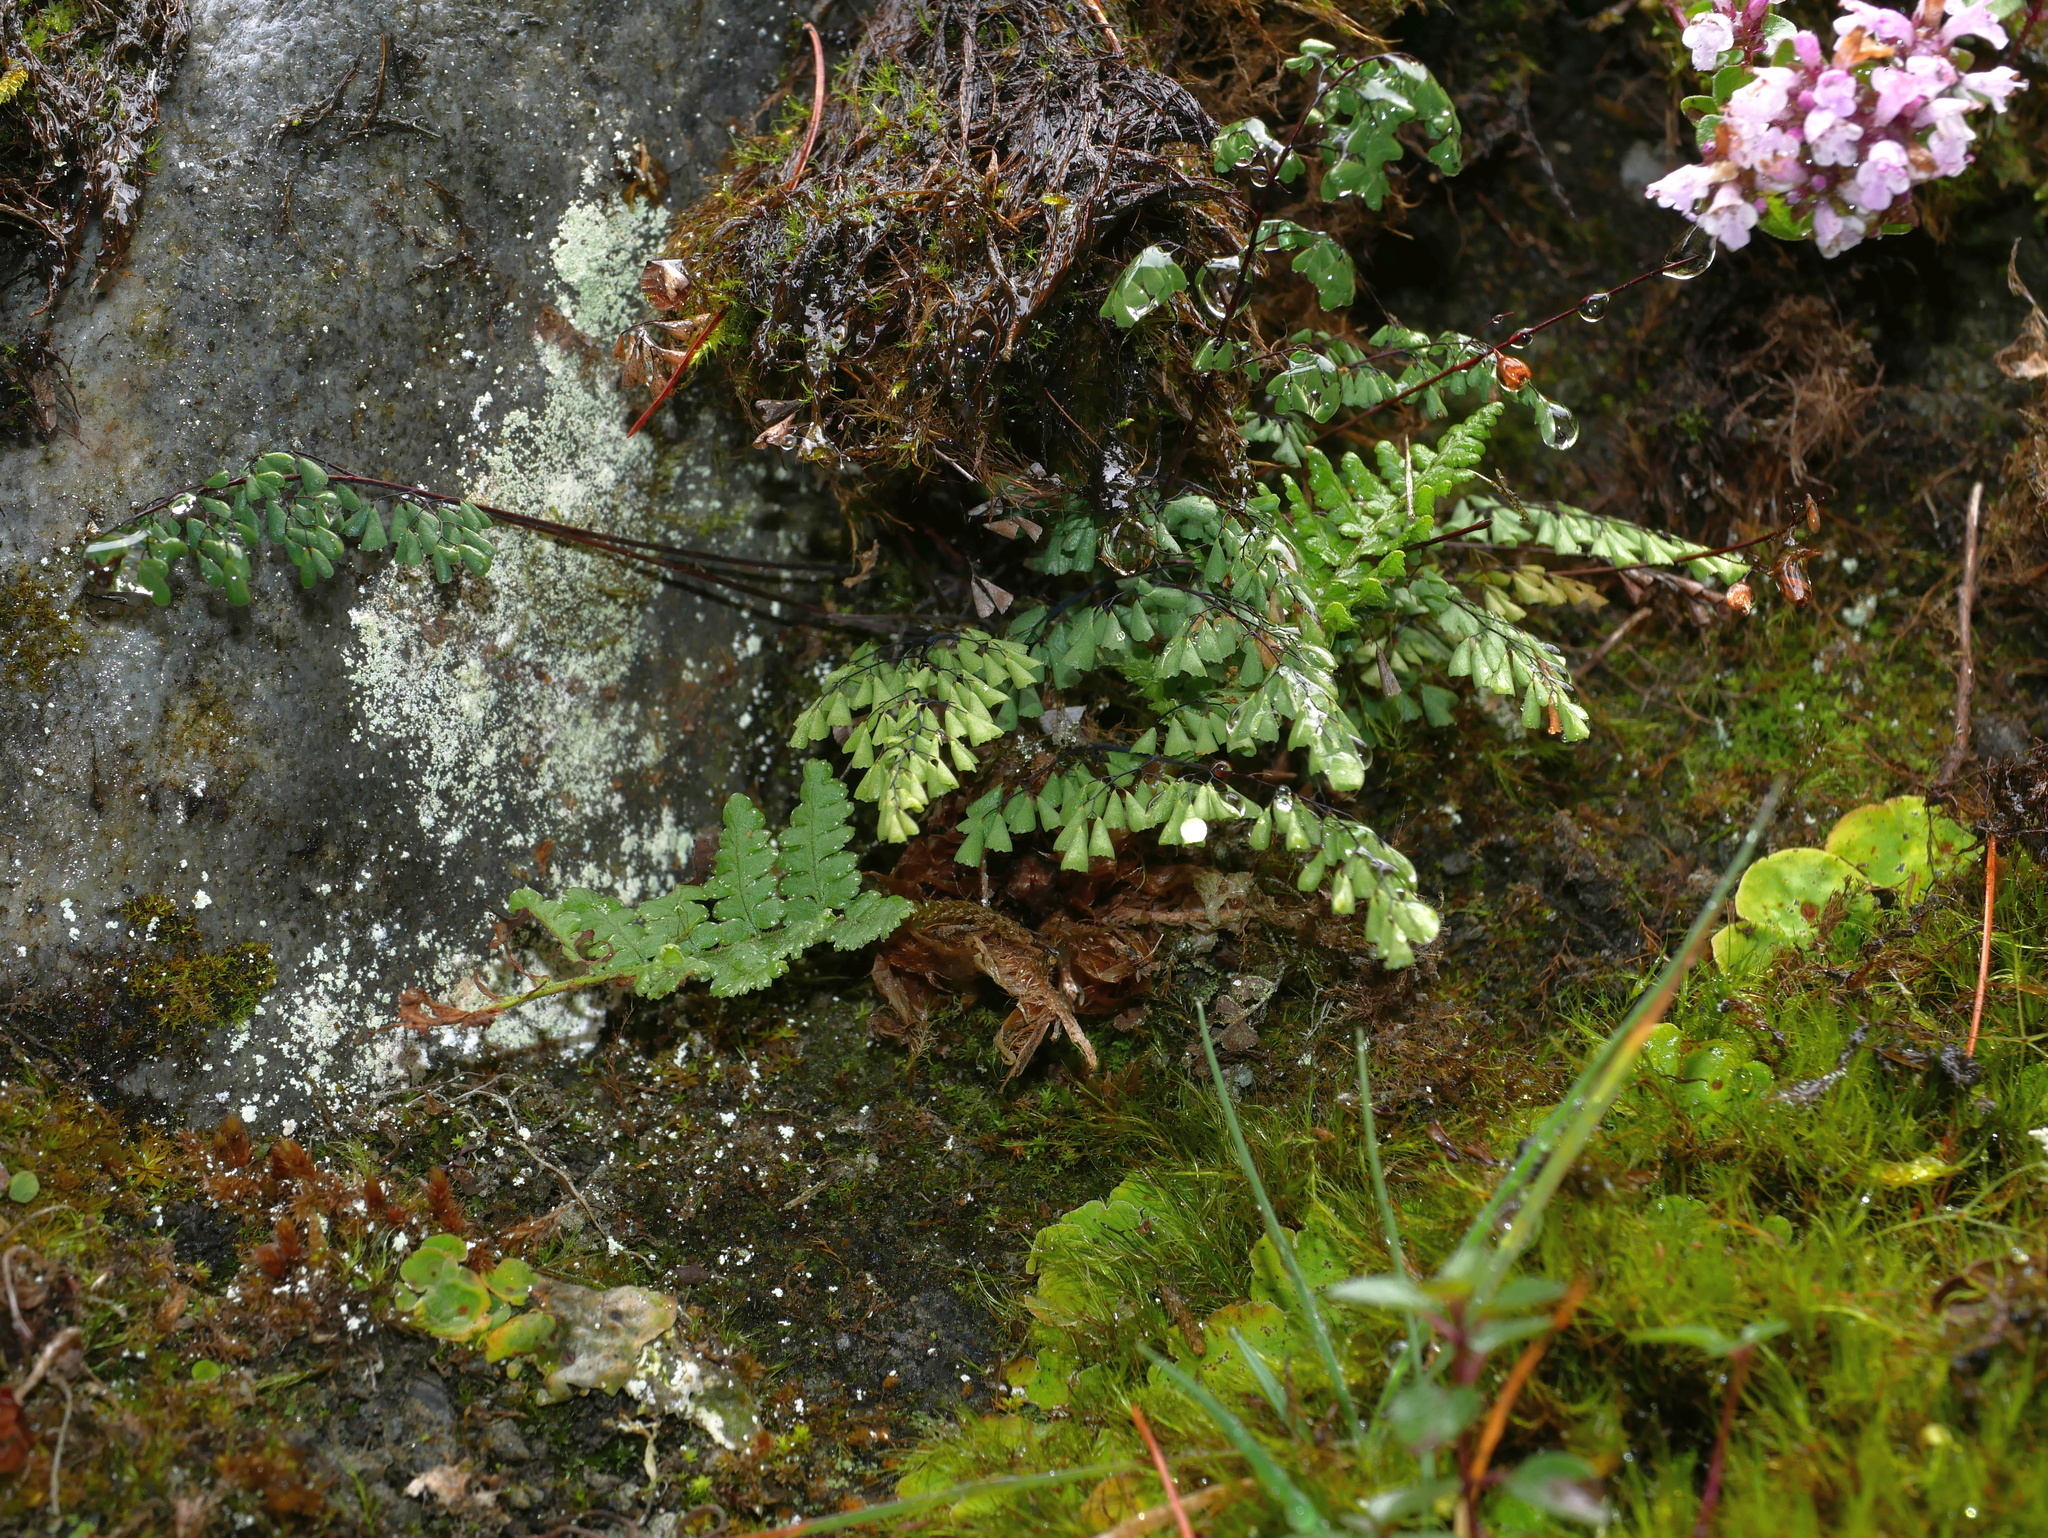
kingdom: Plantae
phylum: Tracheophyta
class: Polypodiopsida
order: Polypodiales
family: Pteridaceae
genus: Adiantum
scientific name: Adiantum taiwanianum
